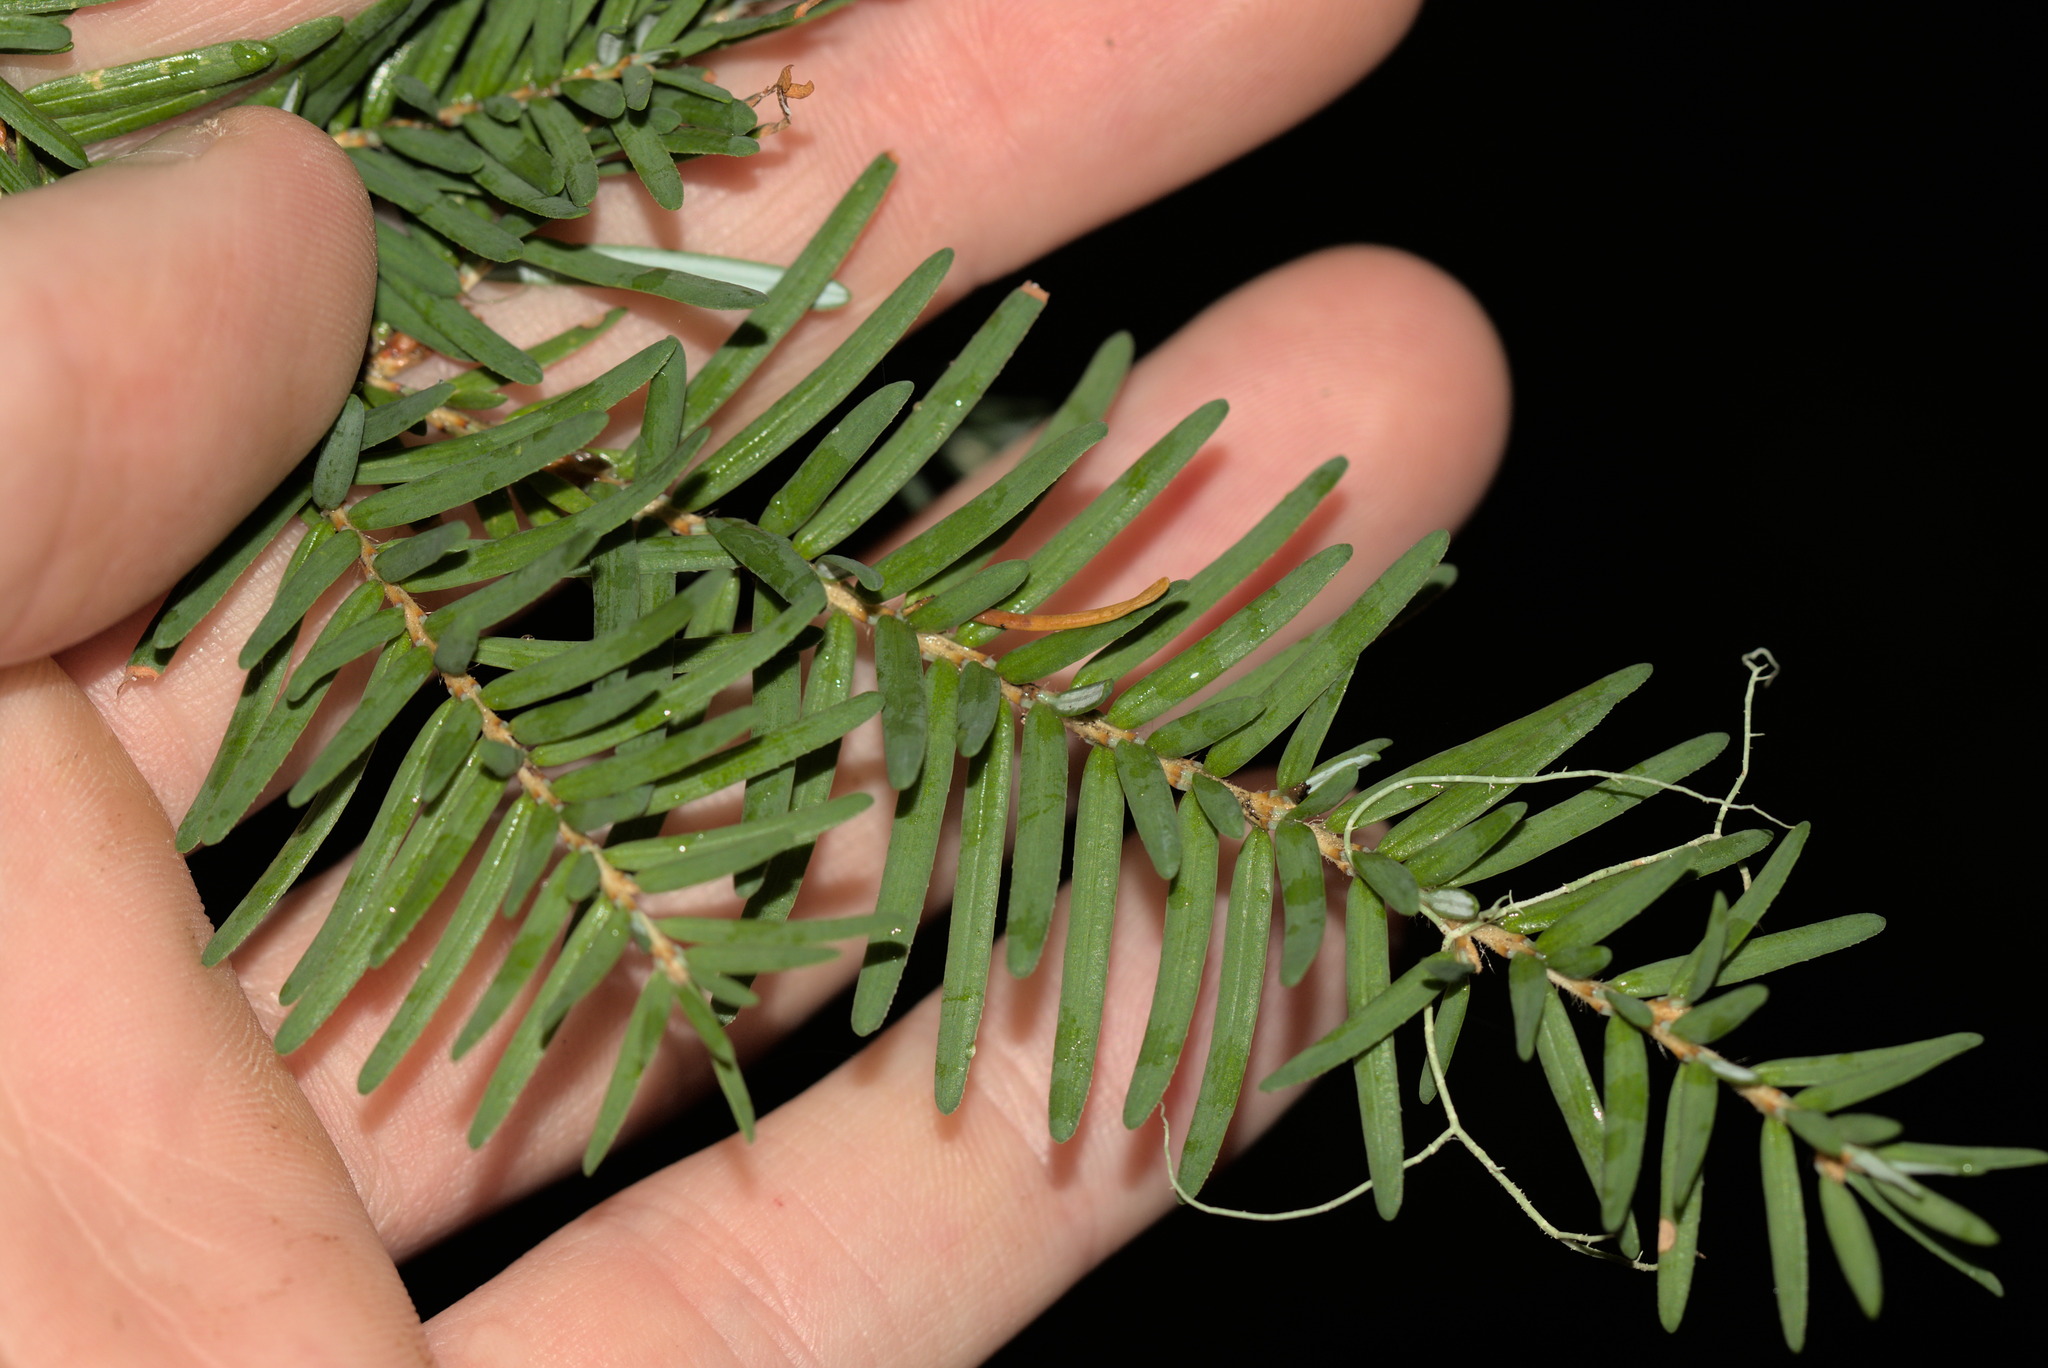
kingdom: Plantae
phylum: Tracheophyta
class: Pinopsida
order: Pinales
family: Pinaceae
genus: Tsuga
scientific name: Tsuga heterophylla
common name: Western hemlock
